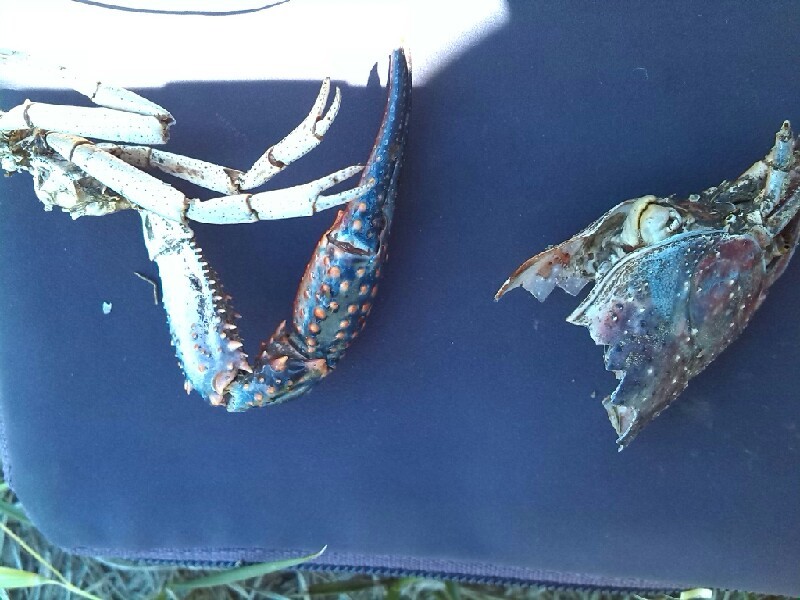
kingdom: Animalia
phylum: Arthropoda
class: Malacostraca
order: Decapoda
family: Cambaridae
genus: Procambarus
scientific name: Procambarus clarkii
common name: Red swamp crayfish
